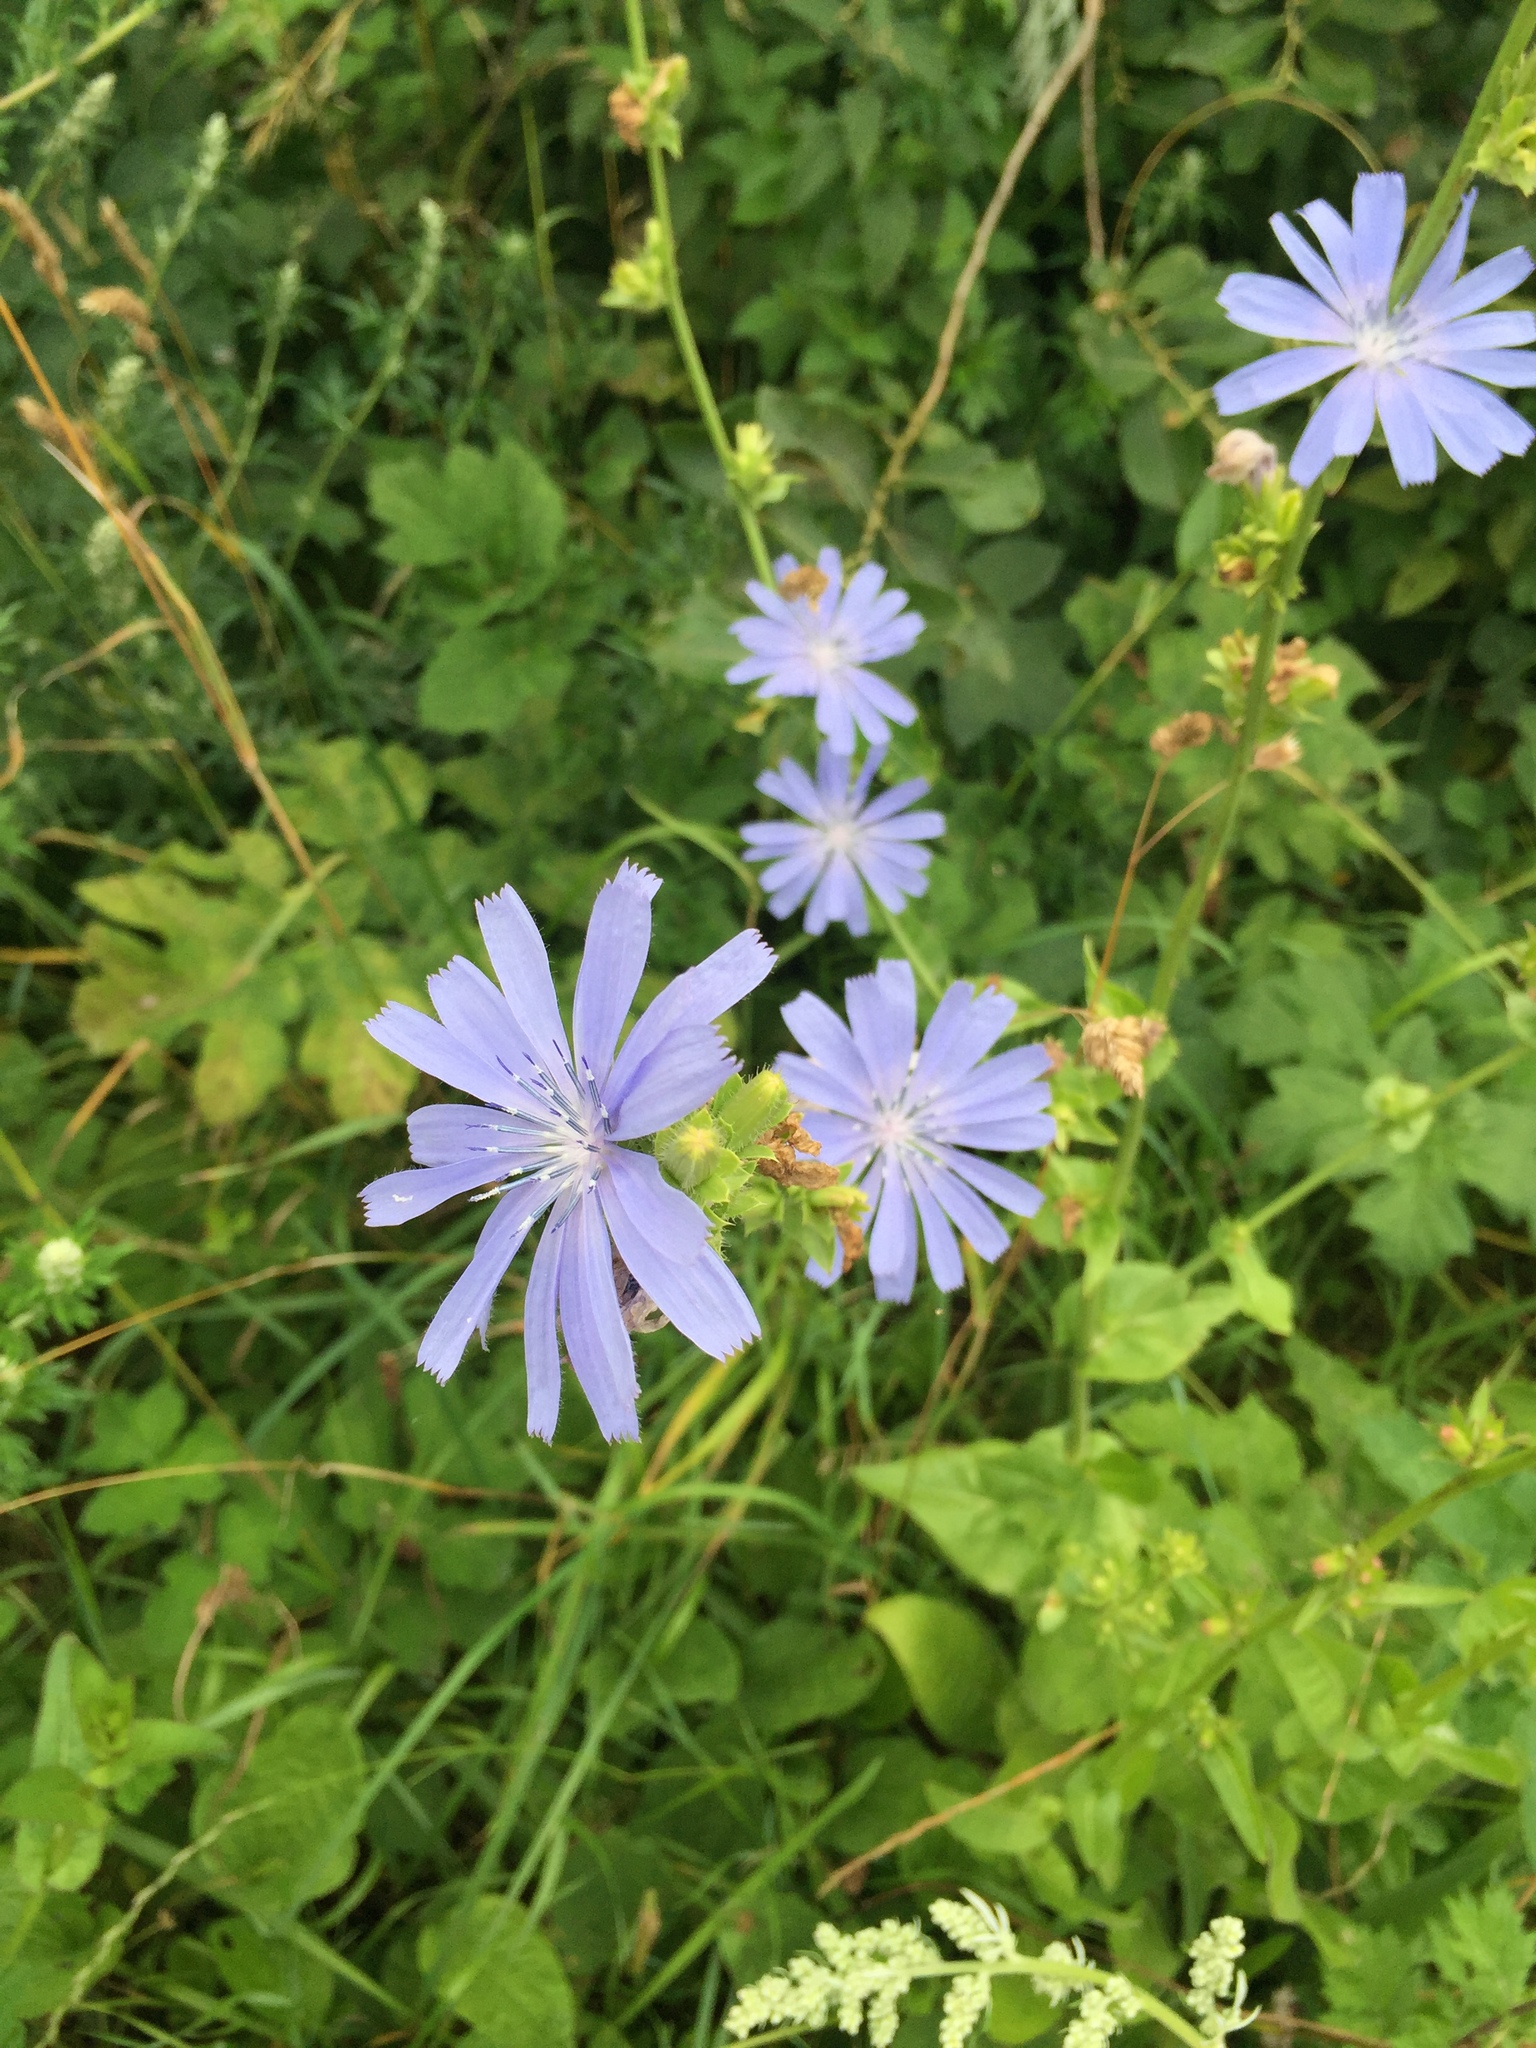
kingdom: Plantae
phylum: Tracheophyta
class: Magnoliopsida
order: Asterales
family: Asteraceae
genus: Cichorium
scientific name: Cichorium intybus
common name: Chicory
